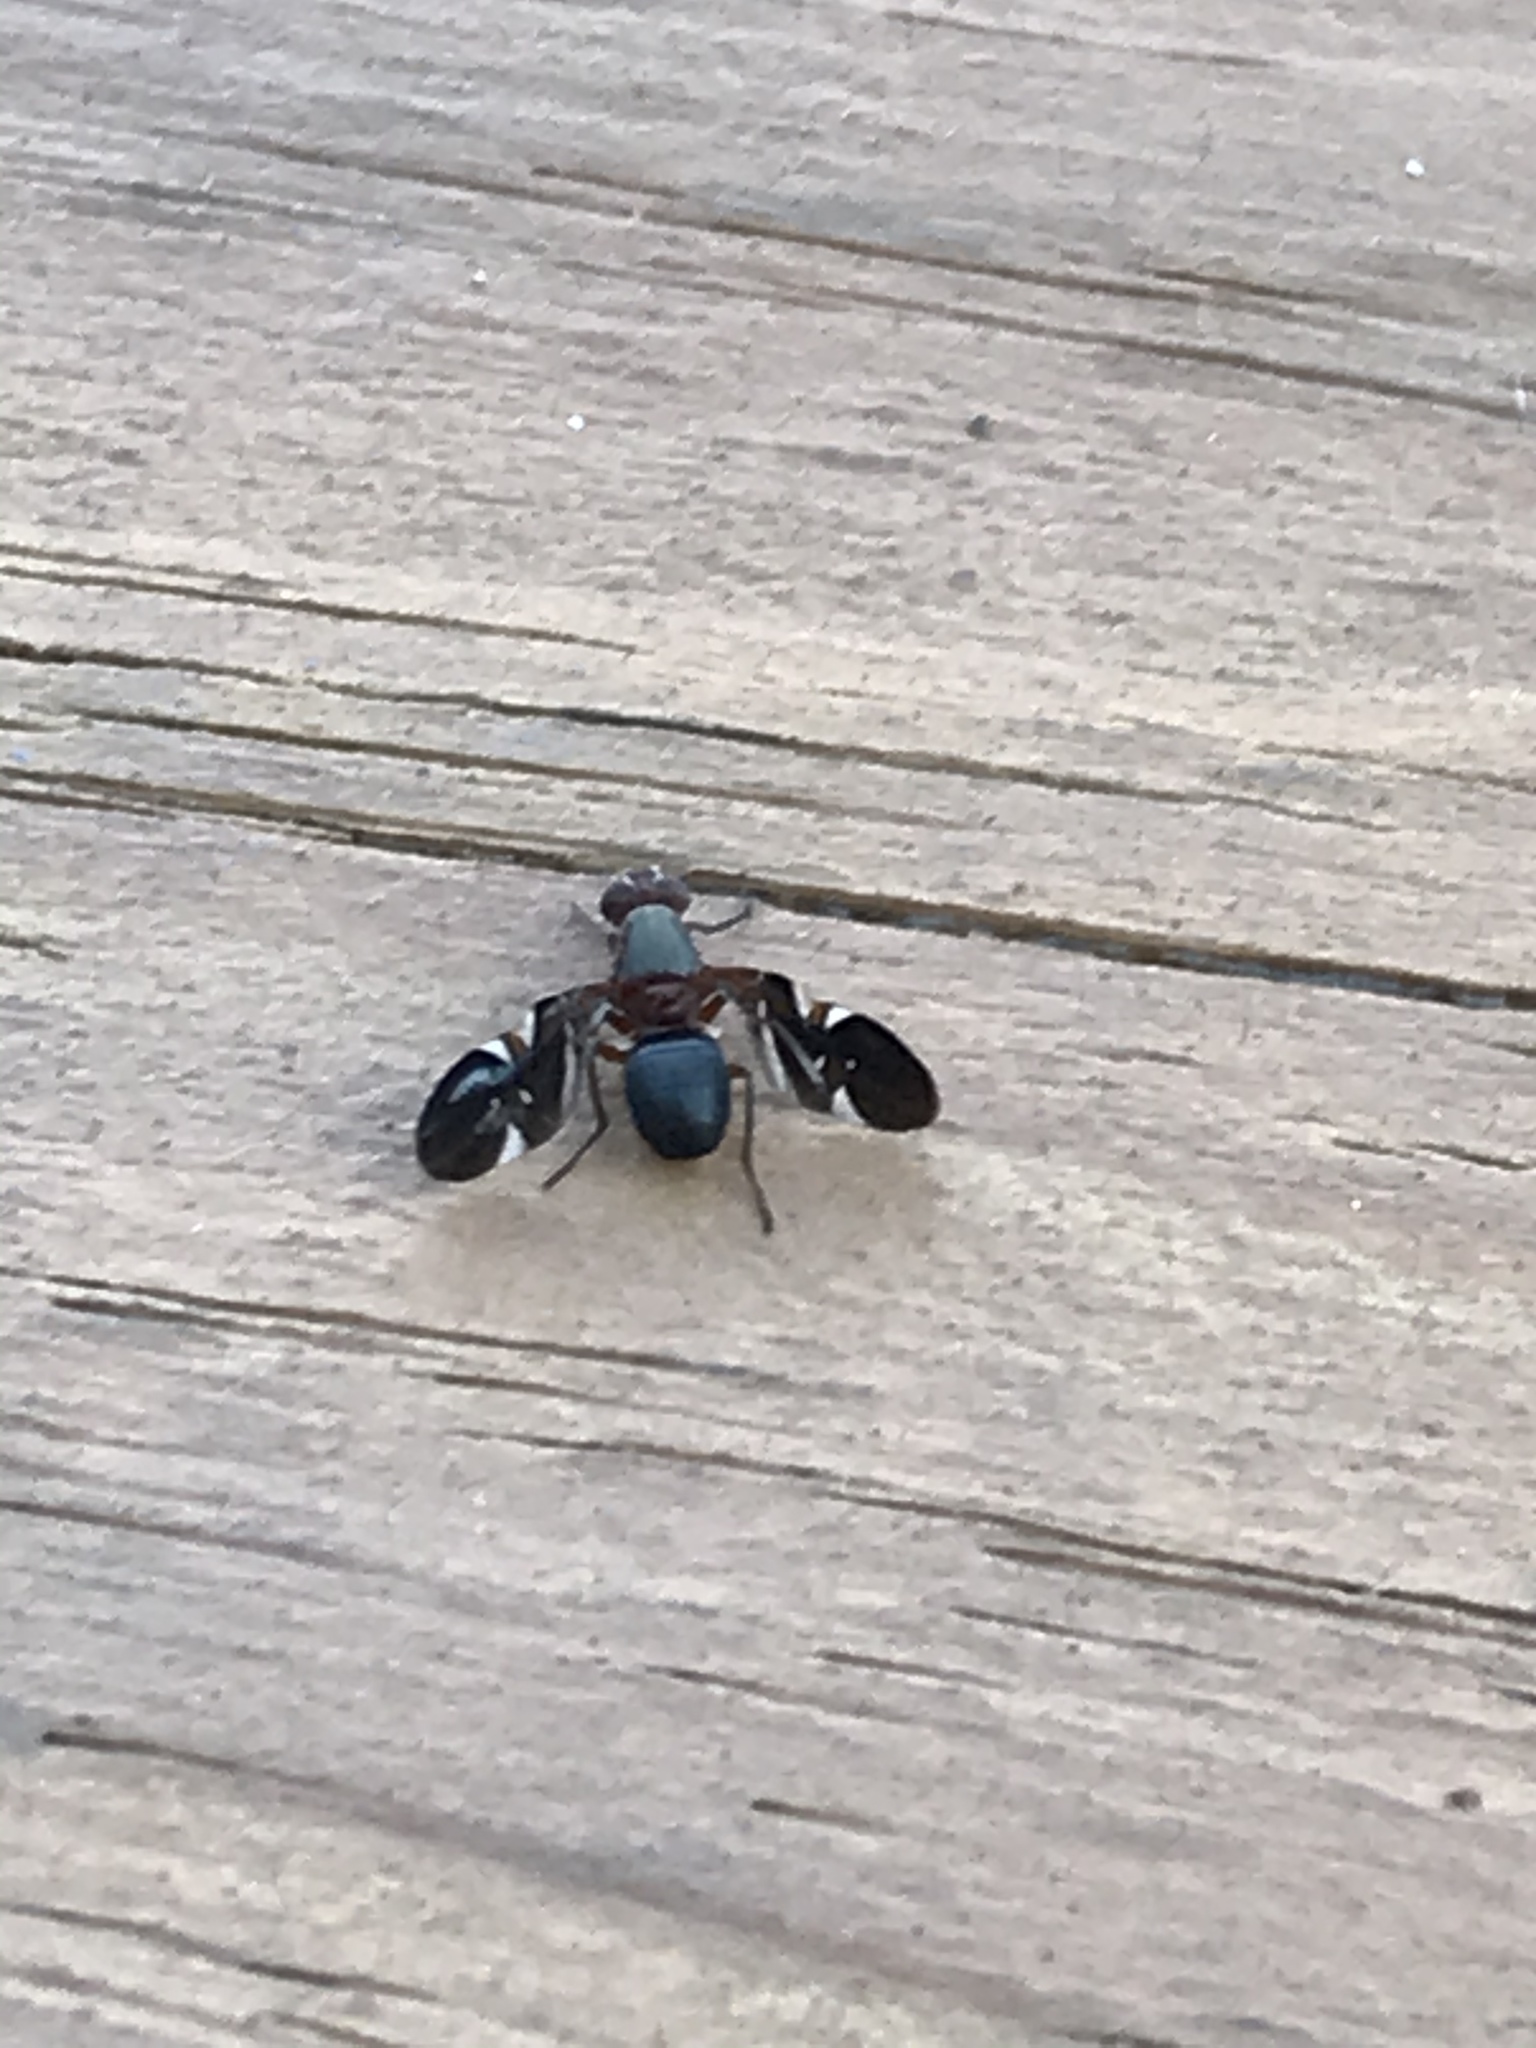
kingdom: Animalia
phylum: Arthropoda
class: Insecta
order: Diptera
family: Ulidiidae
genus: Delphinia
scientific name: Delphinia picta
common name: Common picture-winged fly
